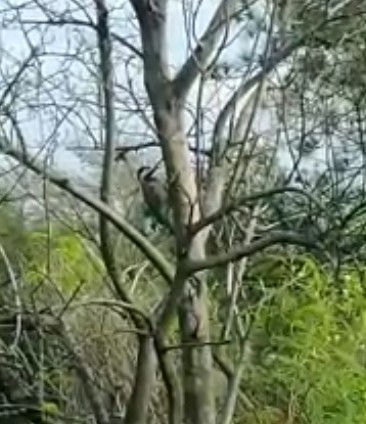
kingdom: Animalia
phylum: Chordata
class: Aves
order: Piciformes
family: Picidae
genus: Colaptes
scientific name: Colaptes melanochloros
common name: Green-barred woodpecker
